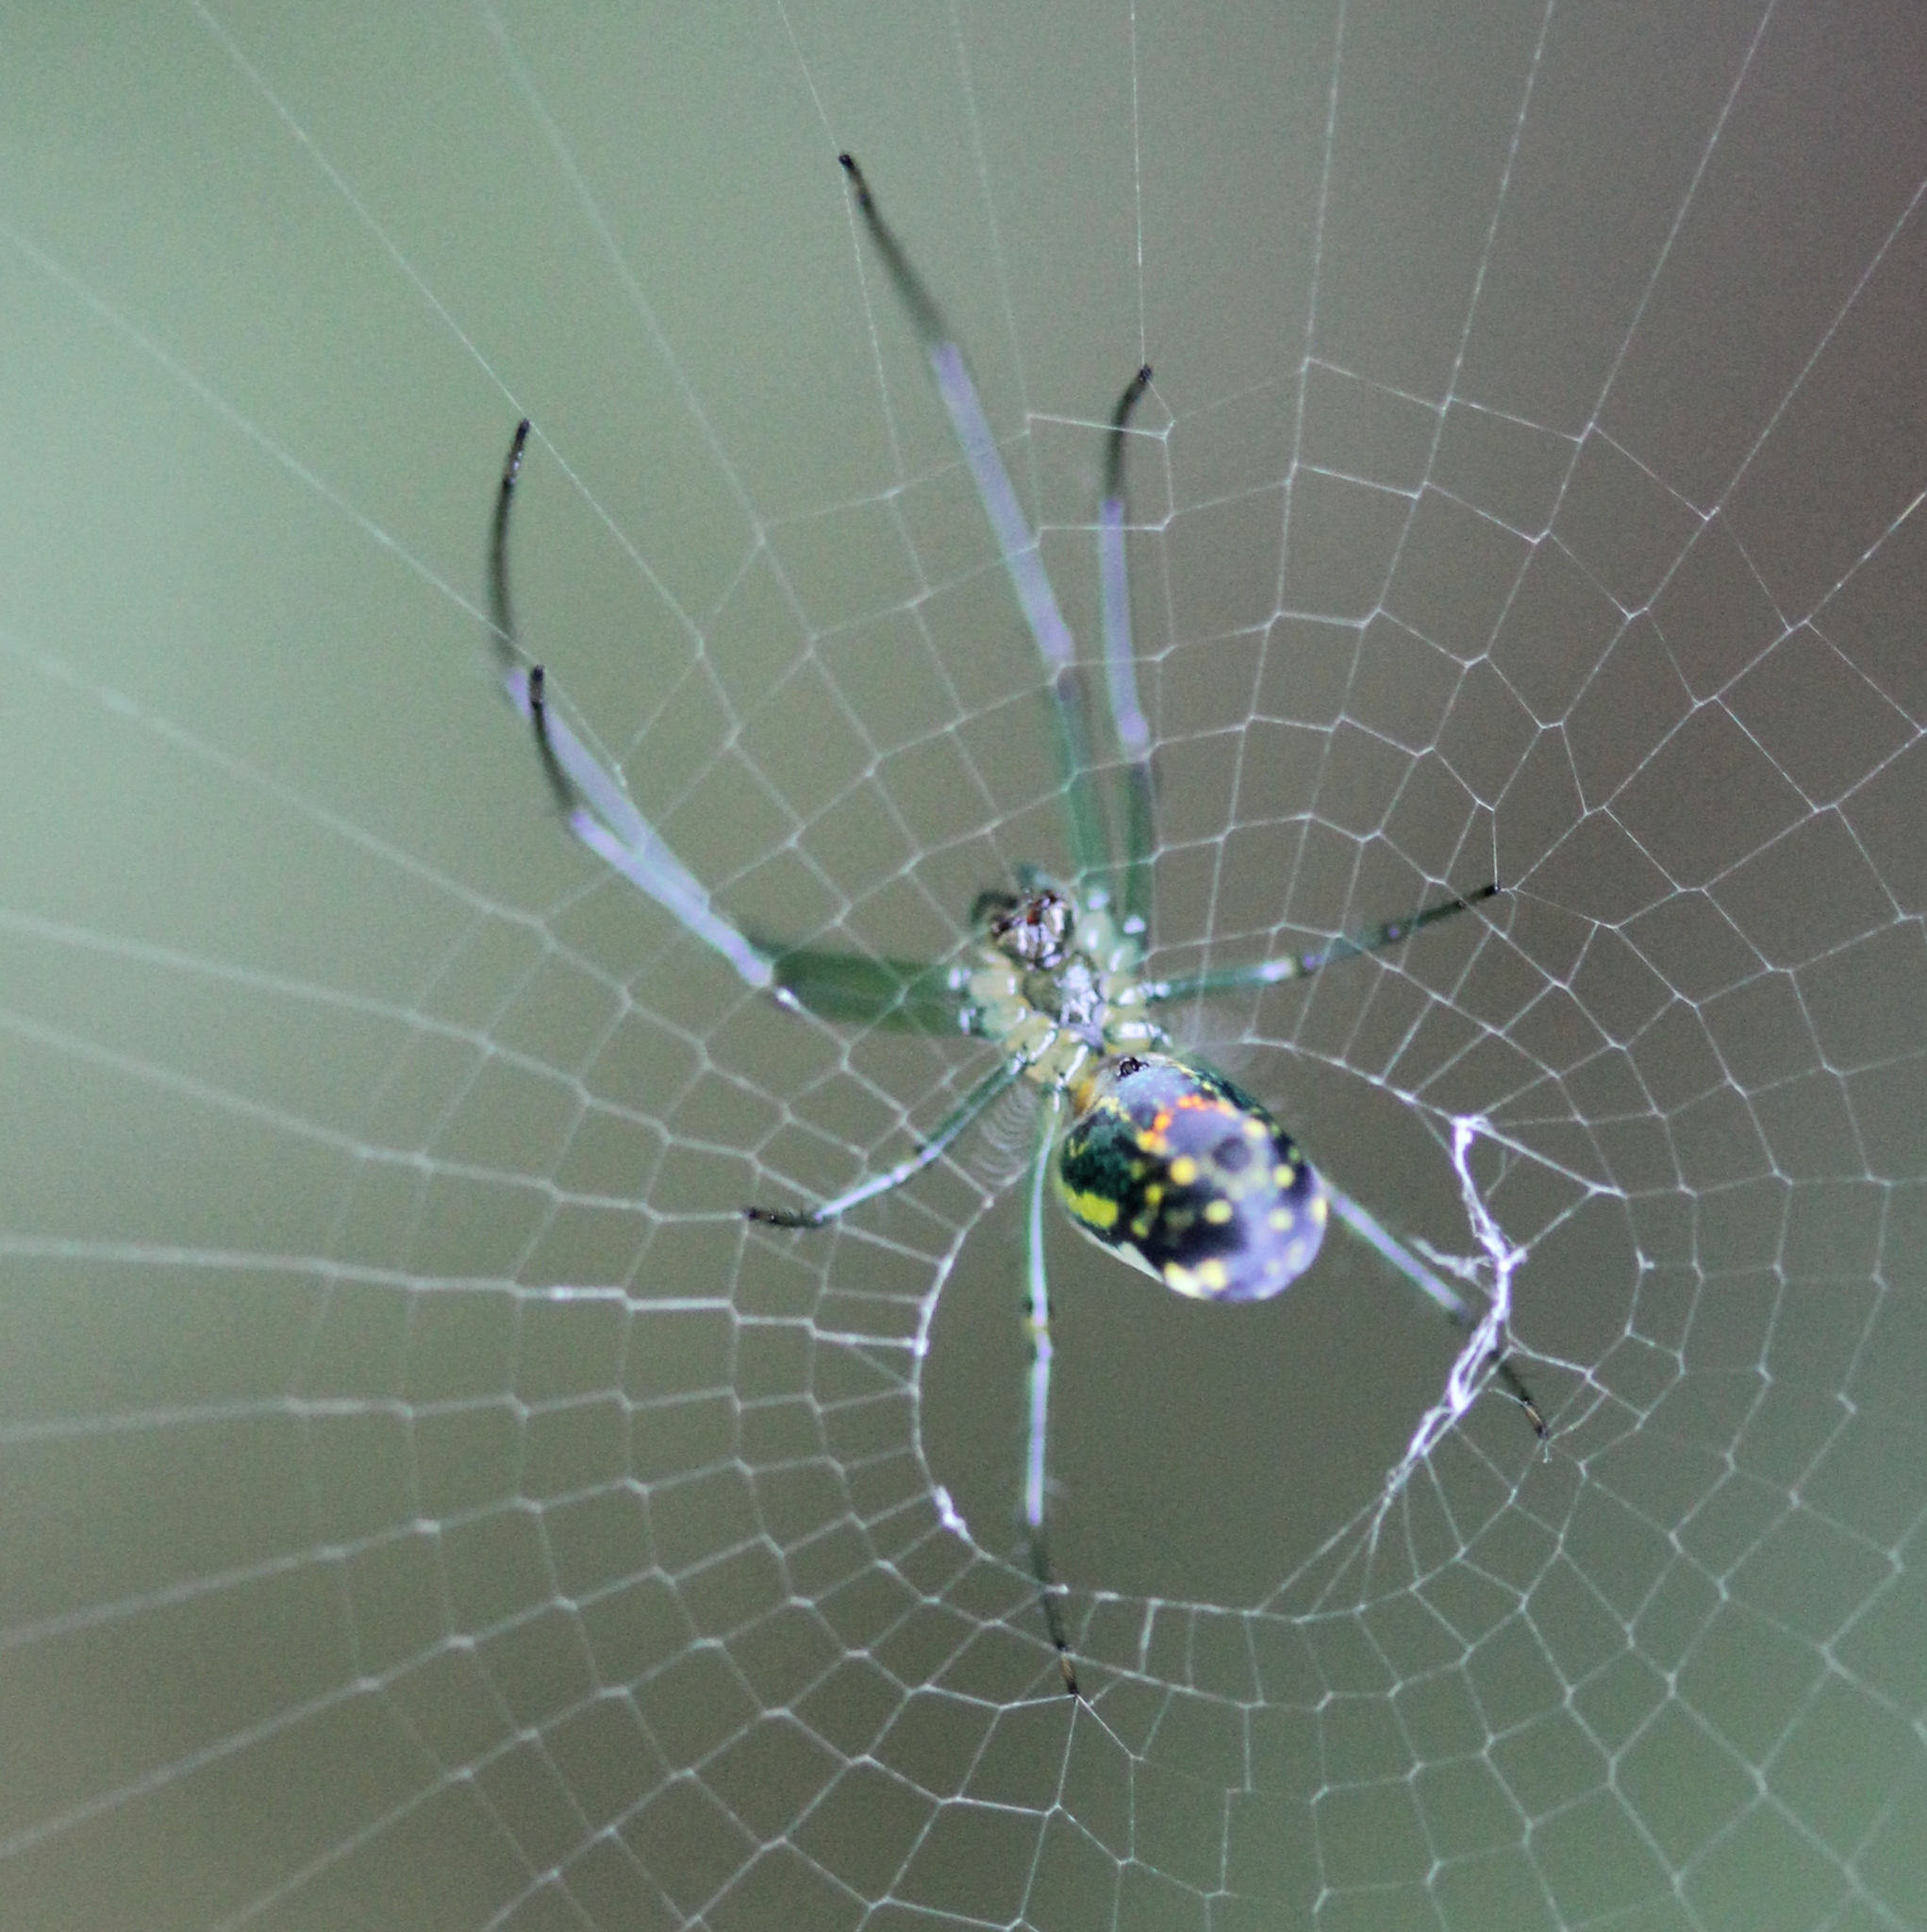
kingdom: Animalia
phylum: Arthropoda
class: Arachnida
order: Araneae
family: Tetragnathidae
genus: Leucauge
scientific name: Leucauge venusta
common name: Longjawed orb weavers
